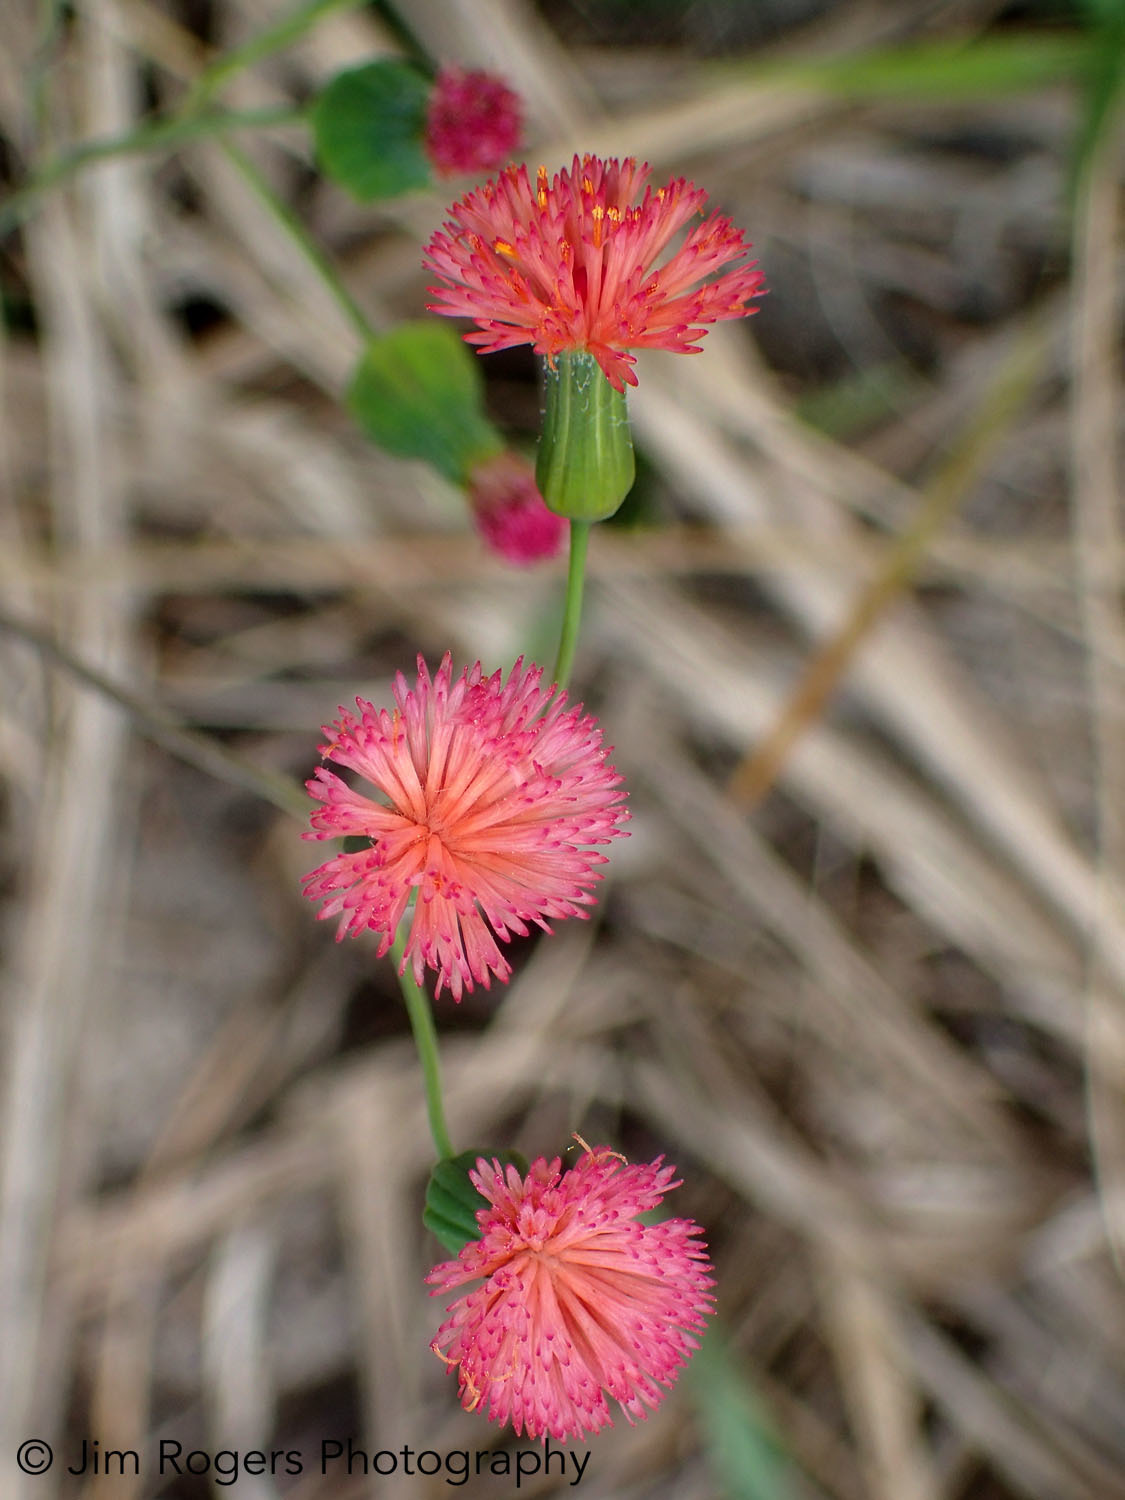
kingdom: Plantae
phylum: Tracheophyta
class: Magnoliopsida
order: Asterales
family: Asteraceae
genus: Emilia
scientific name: Emilia fosbergii
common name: Florida tasselflower
